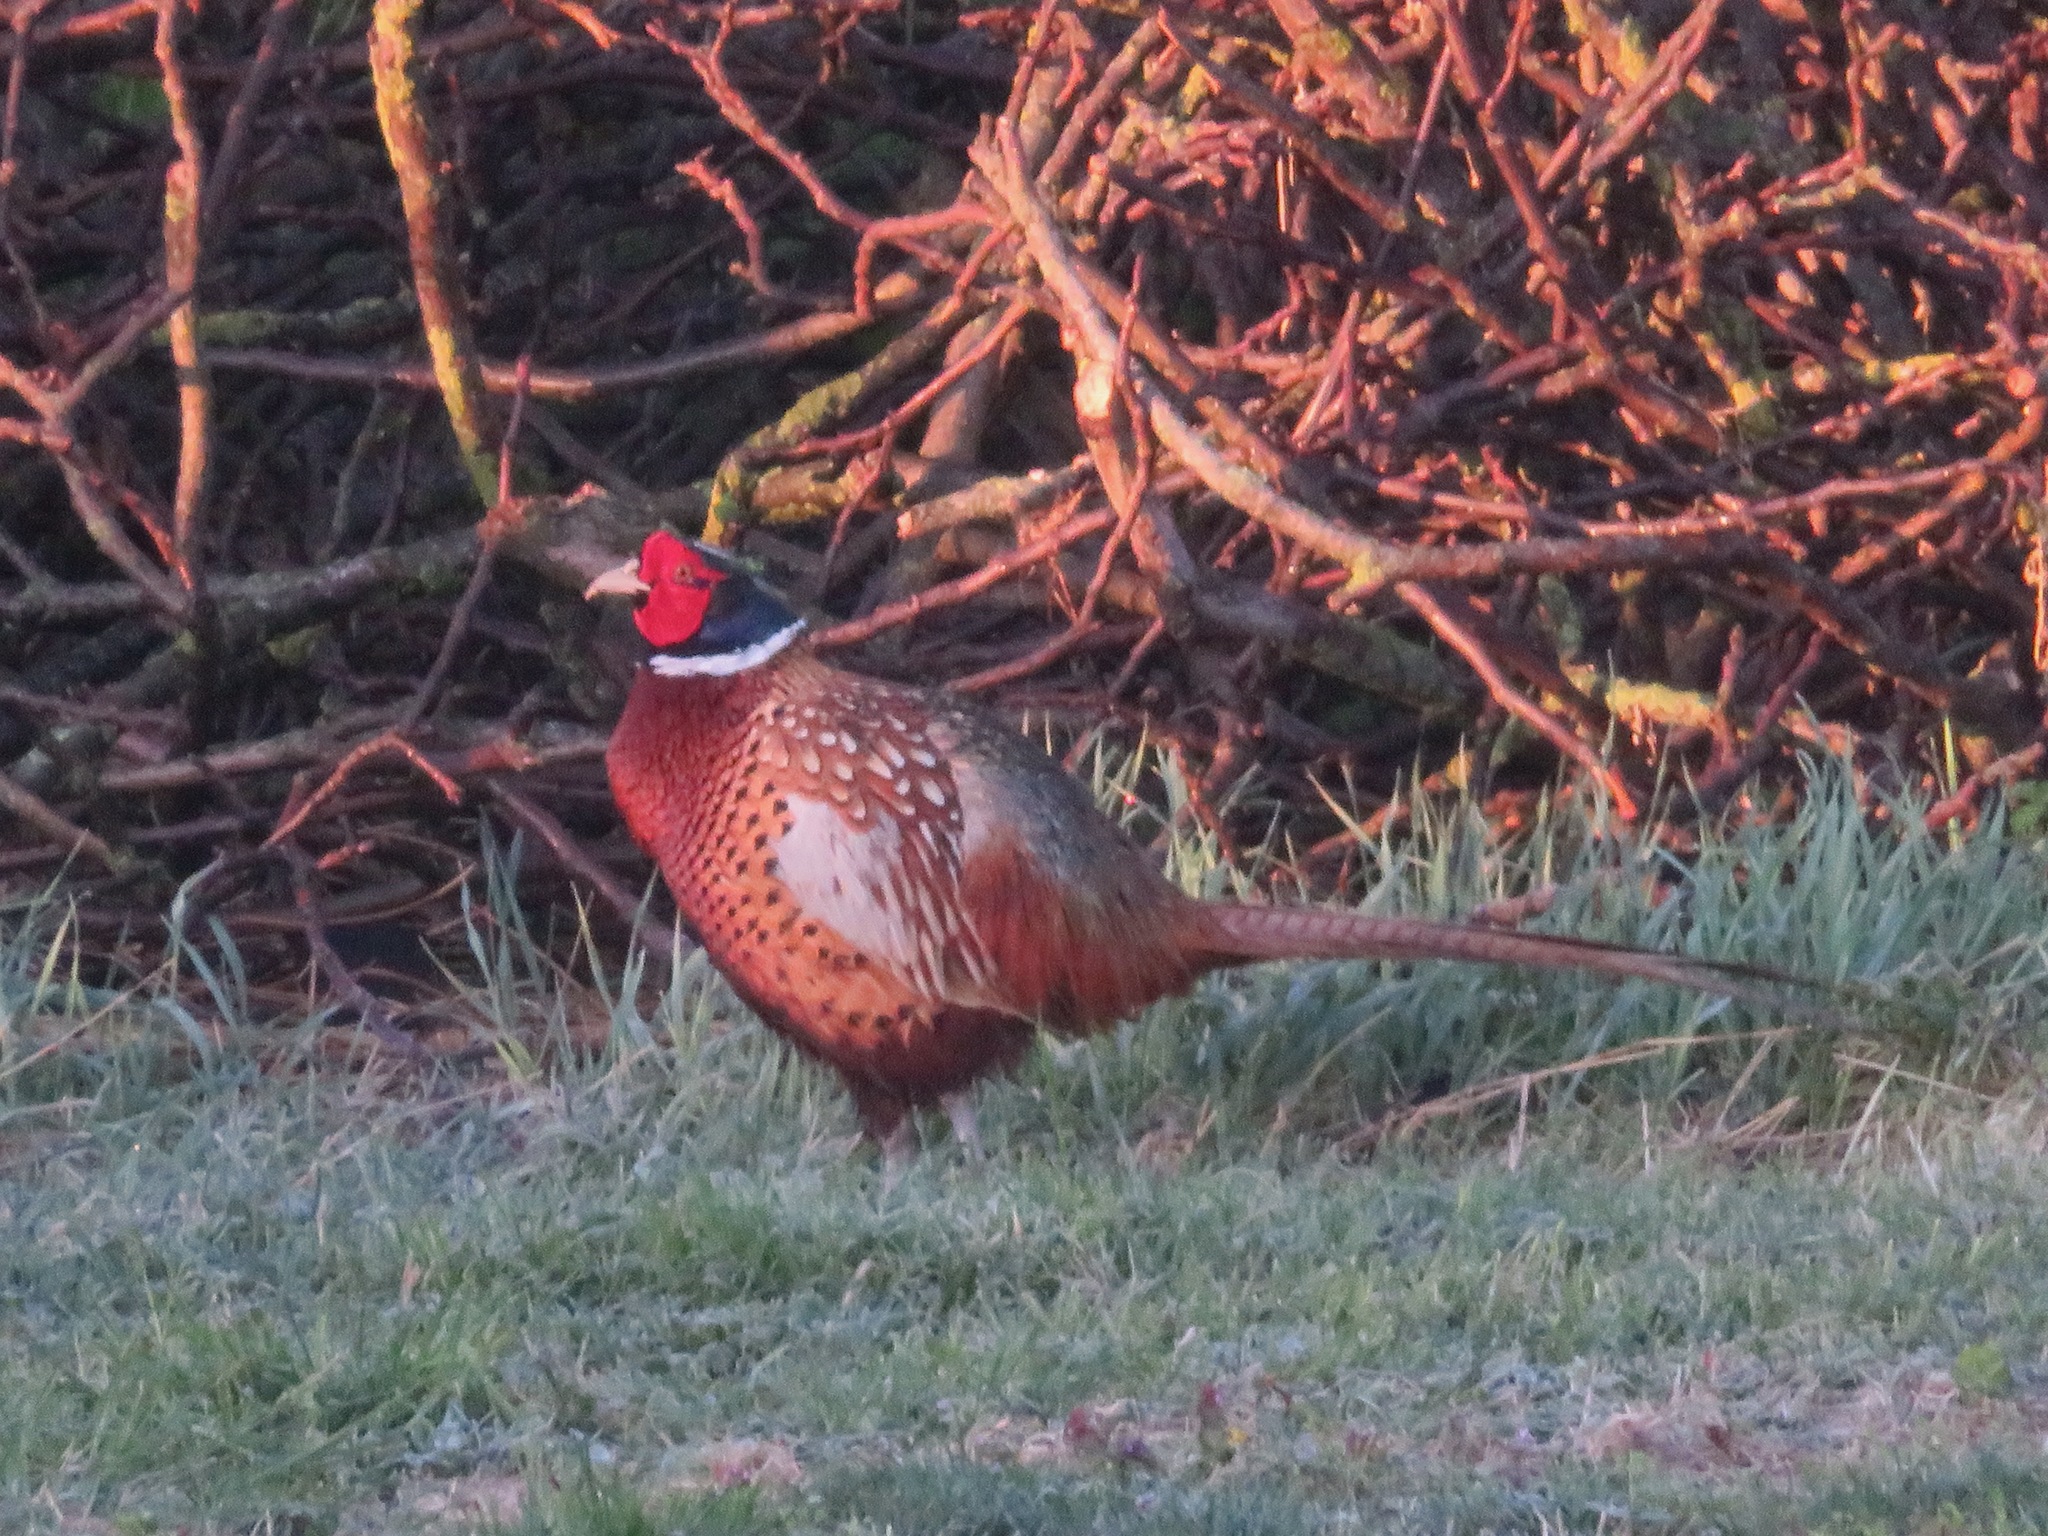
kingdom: Animalia
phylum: Chordata
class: Aves
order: Galliformes
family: Phasianidae
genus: Phasianus
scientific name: Phasianus colchicus
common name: Common pheasant
